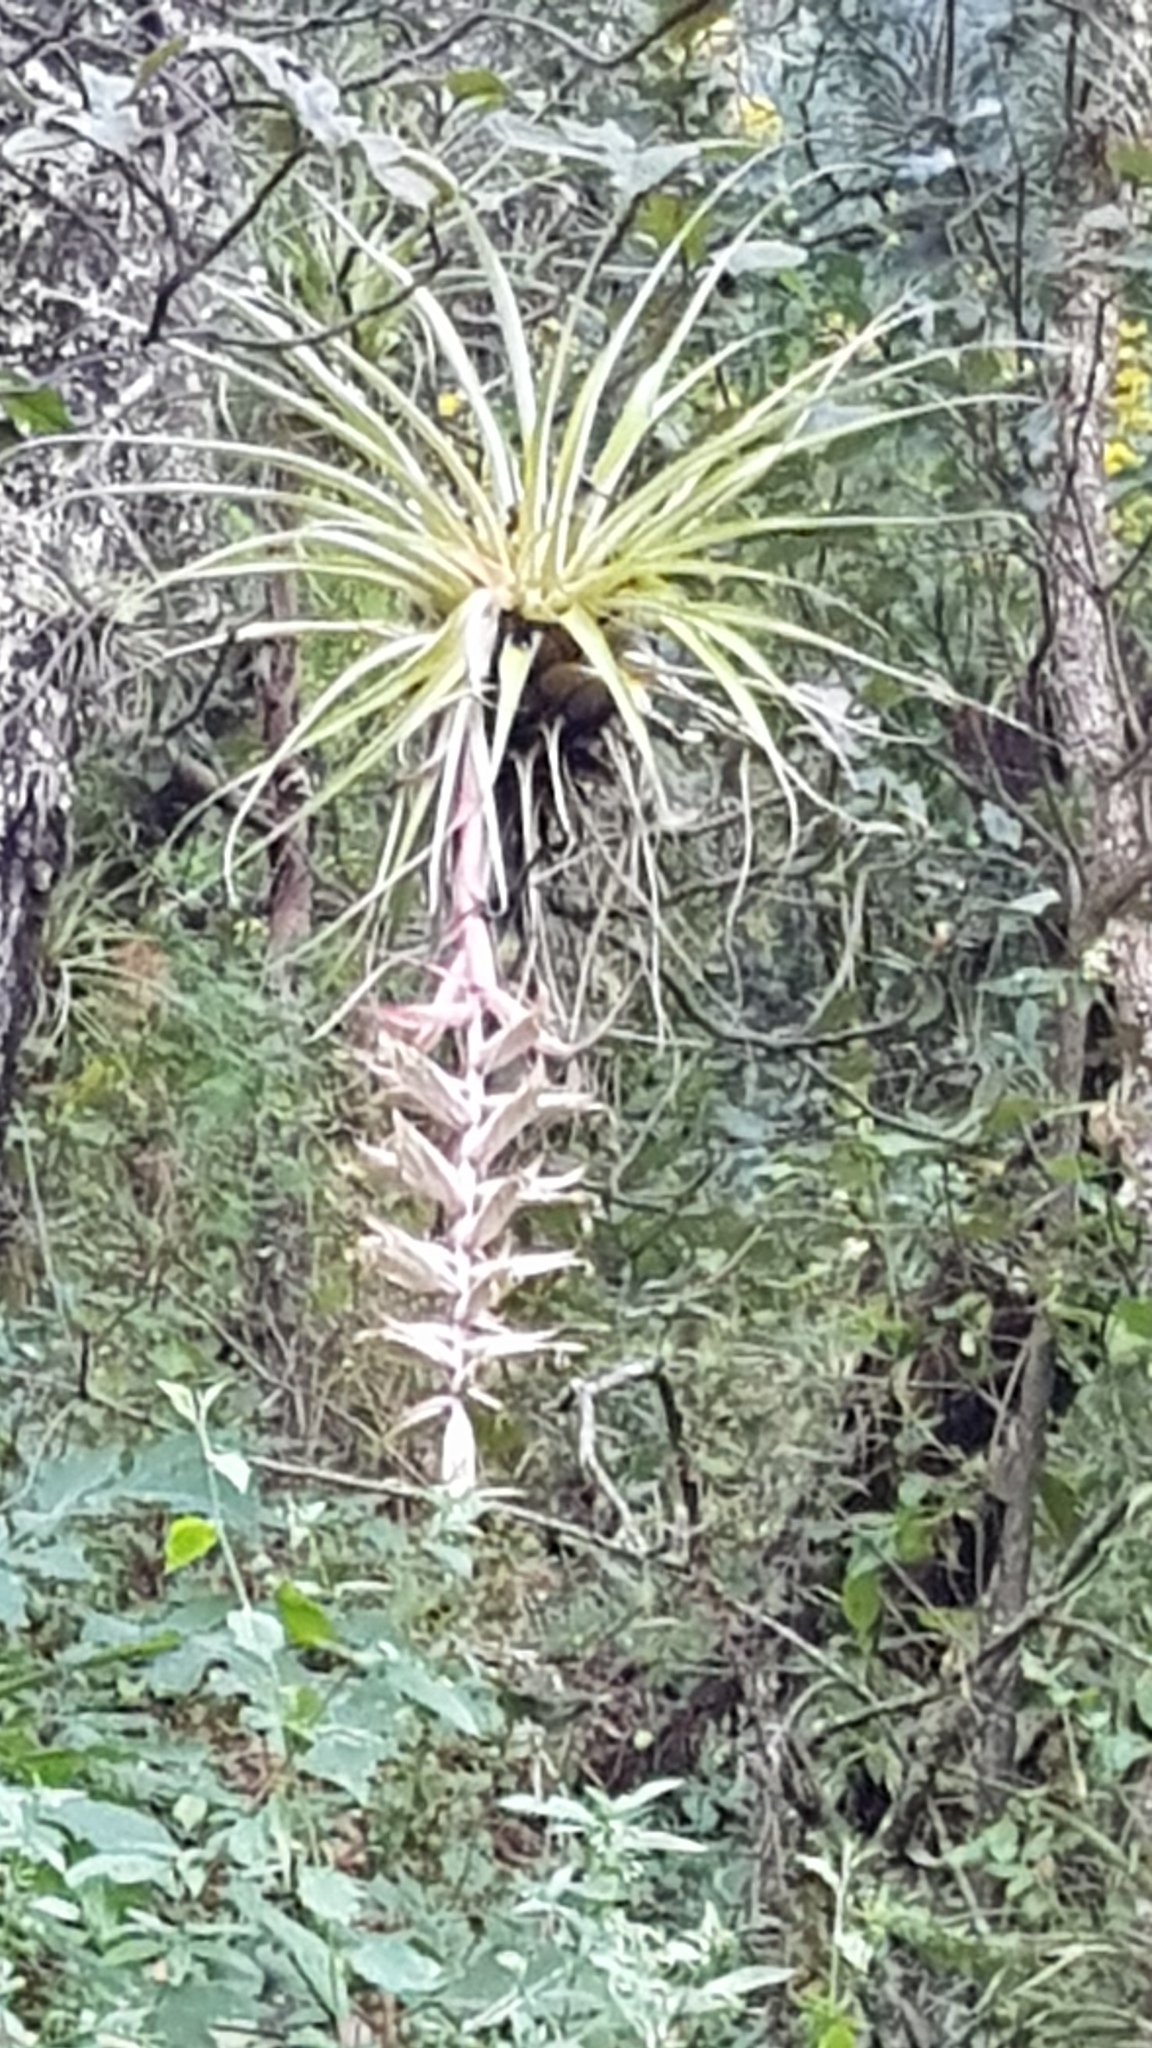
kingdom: Plantae
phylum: Tracheophyta
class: Liliopsida
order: Poales
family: Bromeliaceae
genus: Tillandsia
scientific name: Tillandsia prodigiosa
